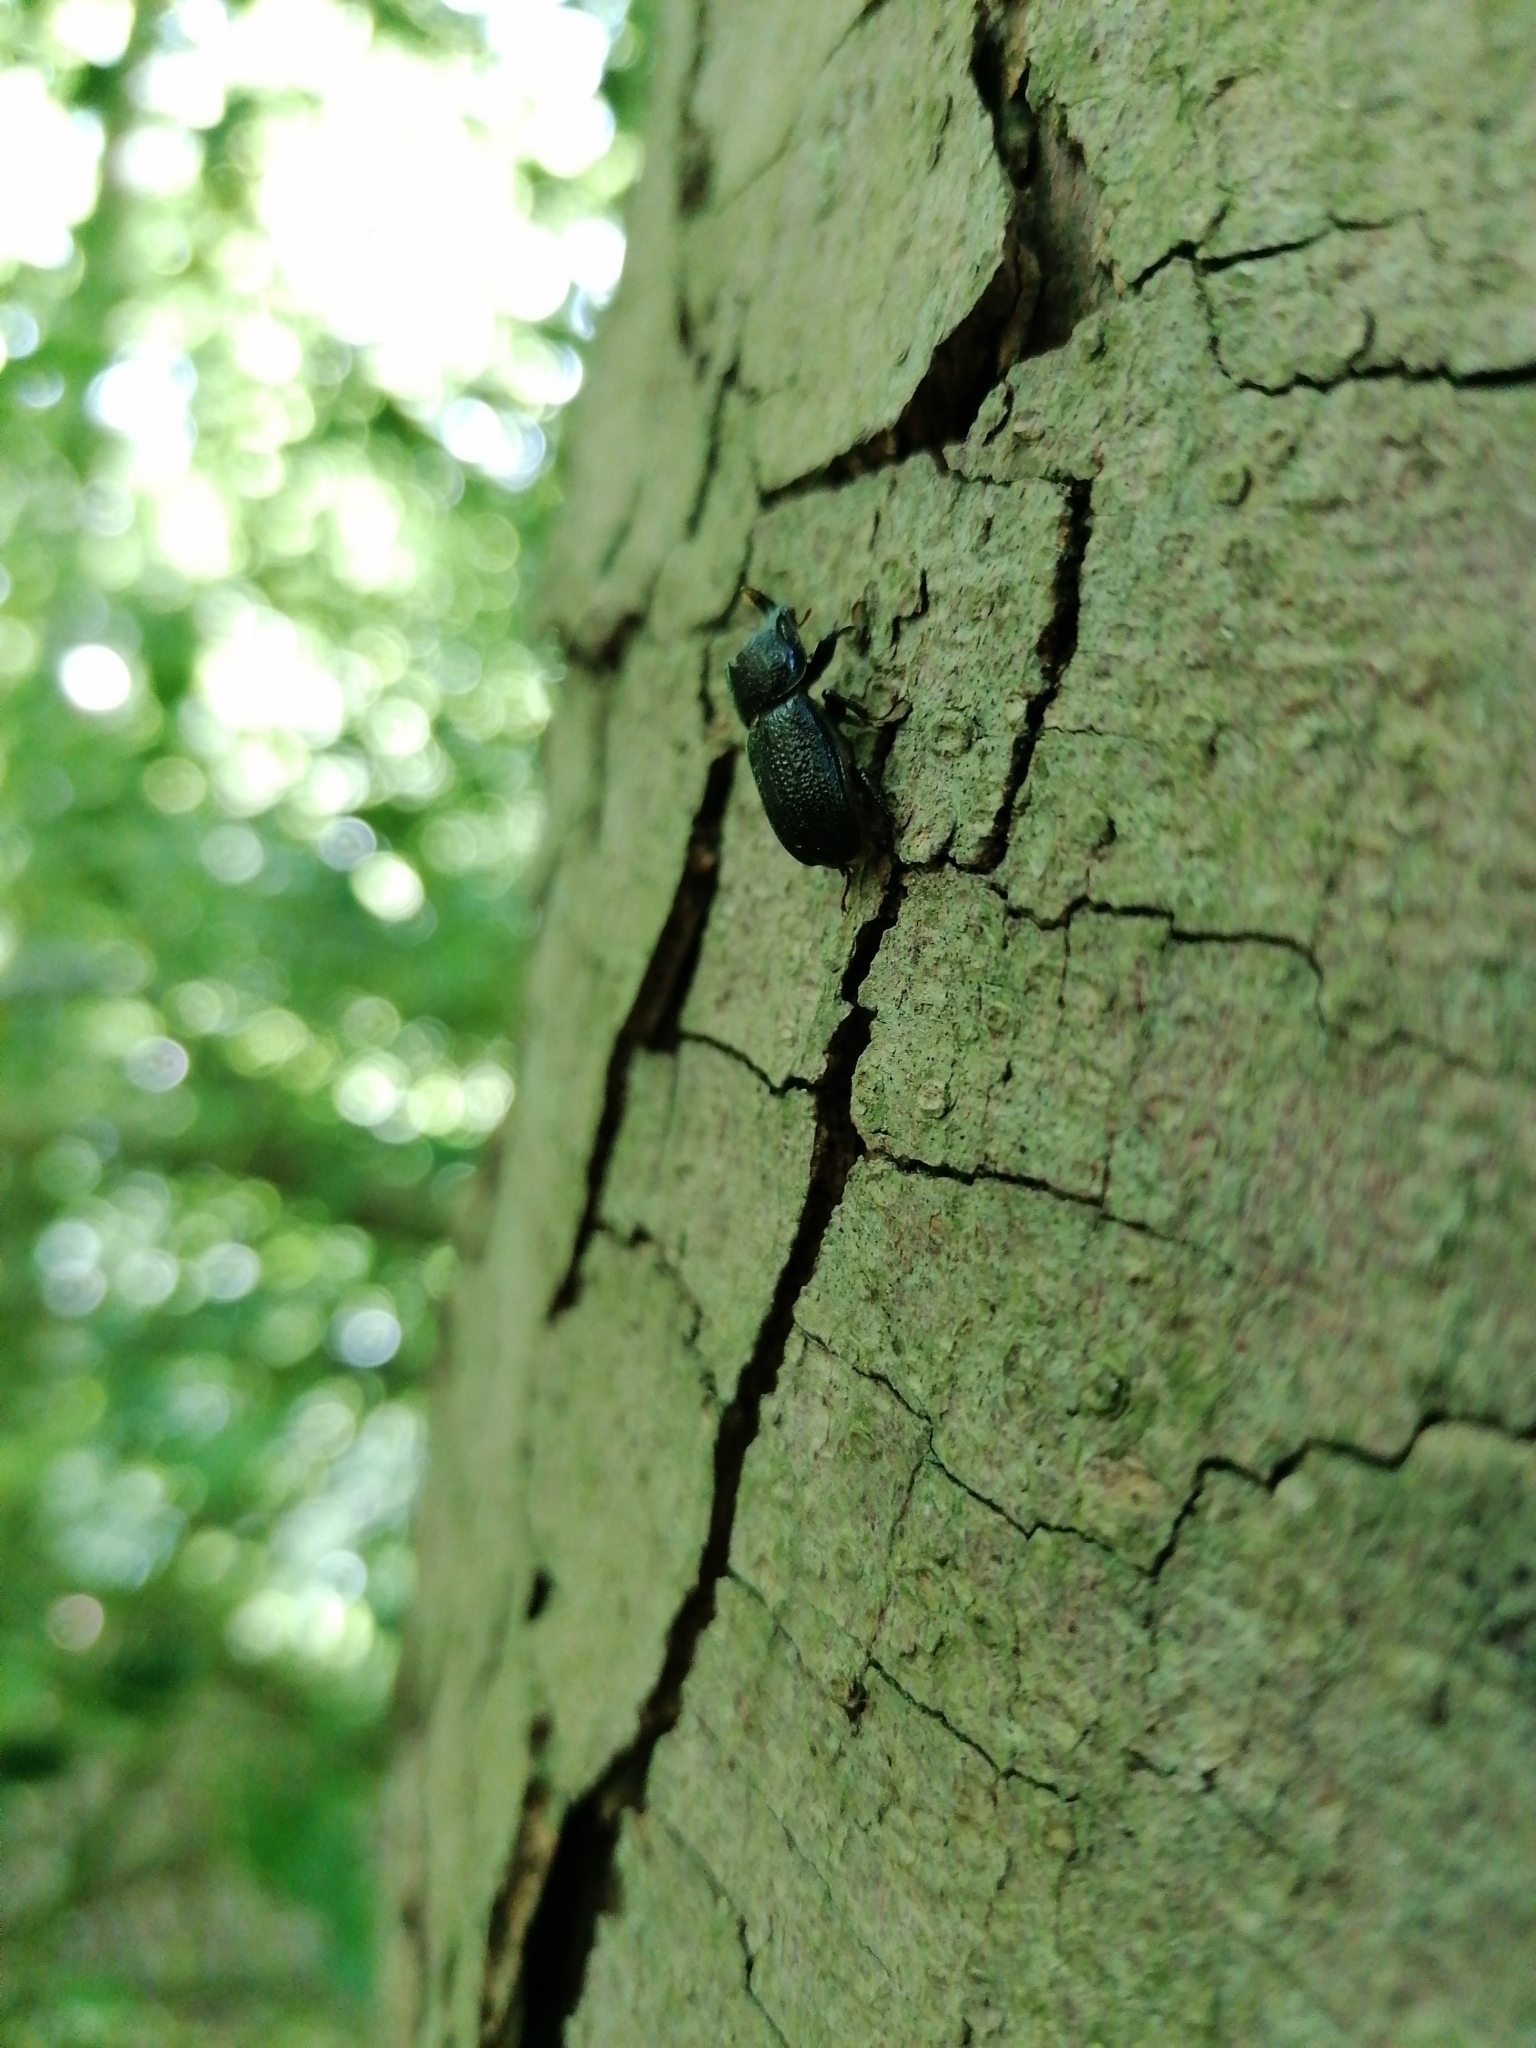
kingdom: Animalia
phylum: Arthropoda
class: Insecta
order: Coleoptera
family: Lucanidae
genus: Sinodendron
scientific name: Sinodendron cylindricum
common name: Rhinoceros beetle
